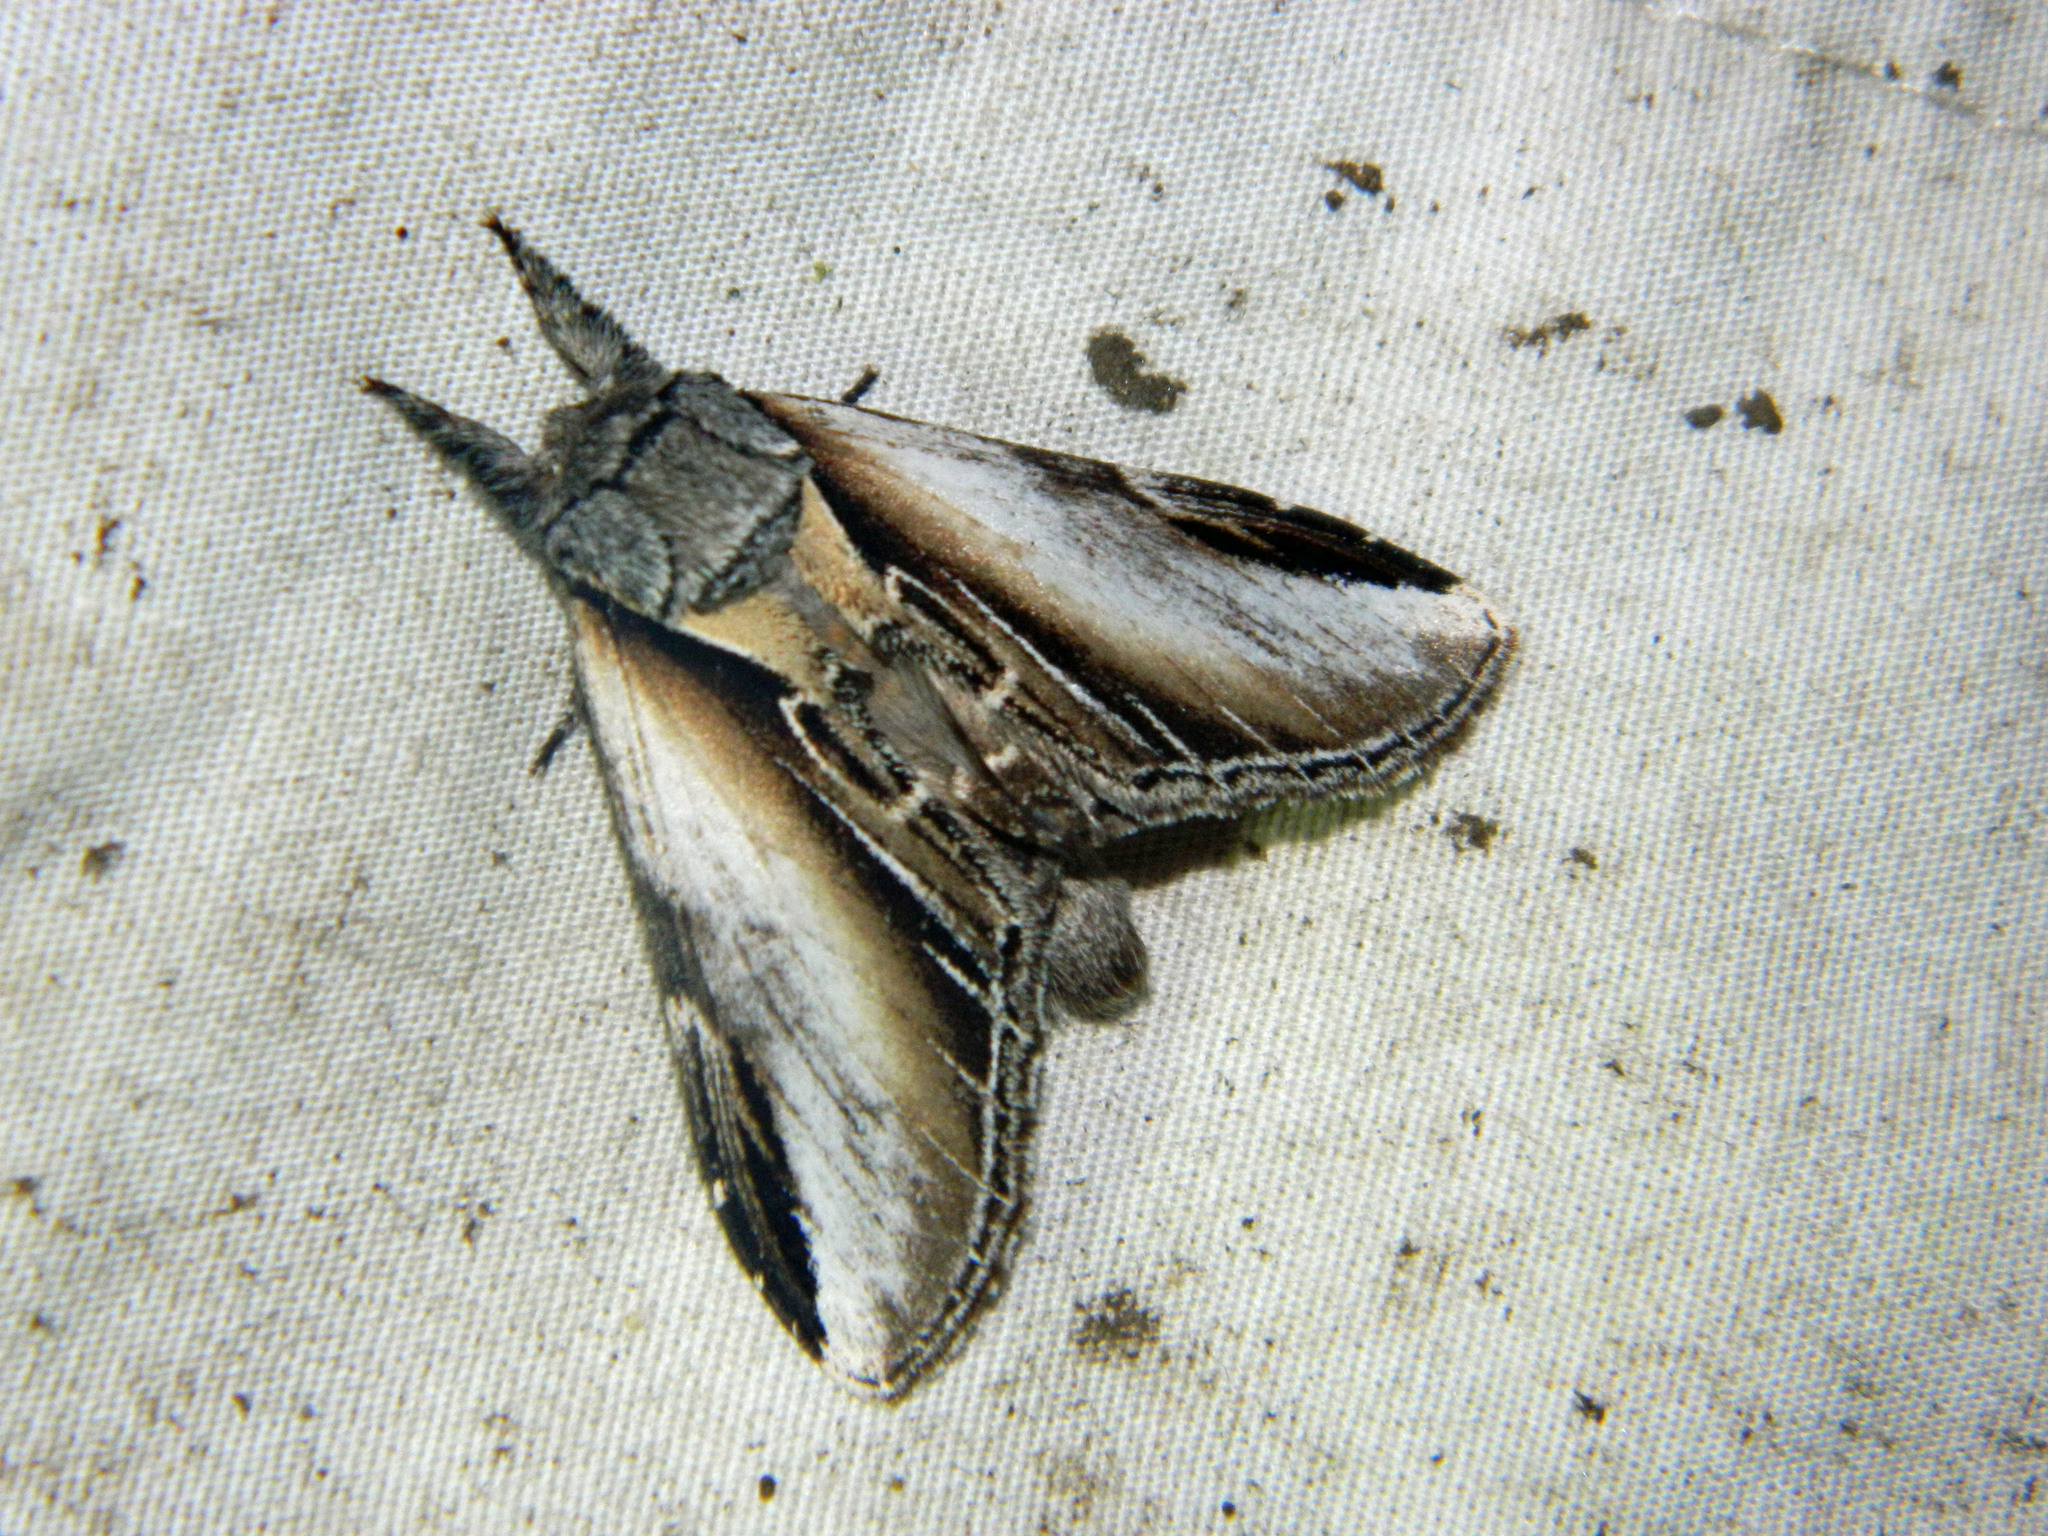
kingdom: Animalia
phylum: Arthropoda
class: Insecta
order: Lepidoptera
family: Notodontidae
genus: Pheosia
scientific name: Pheosia rimosa
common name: Black-rimmed prominent
